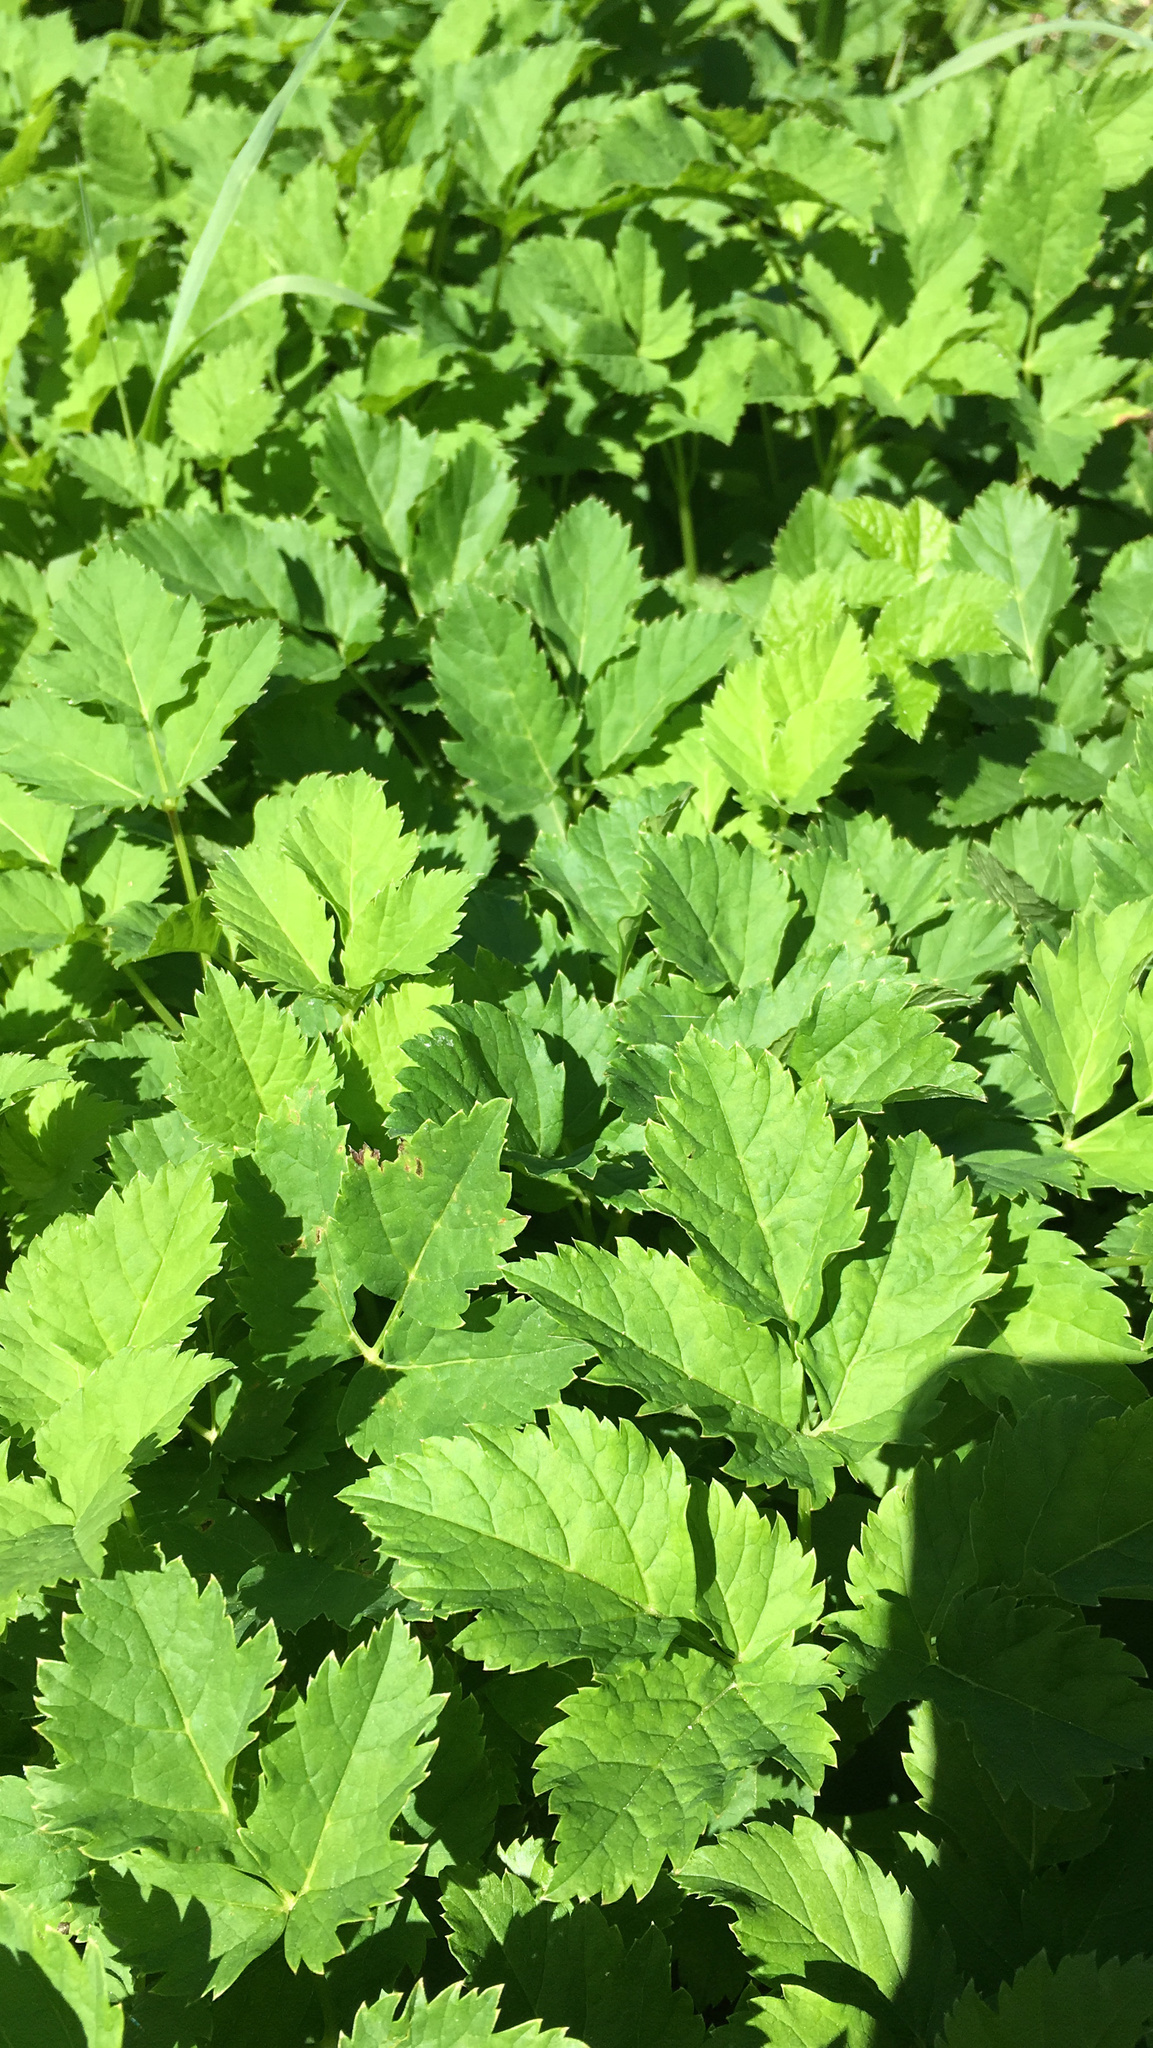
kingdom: Plantae
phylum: Tracheophyta
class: Magnoliopsida
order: Apiales
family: Apiaceae
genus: Aegopodium
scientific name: Aegopodium podagraria
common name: Ground-elder
